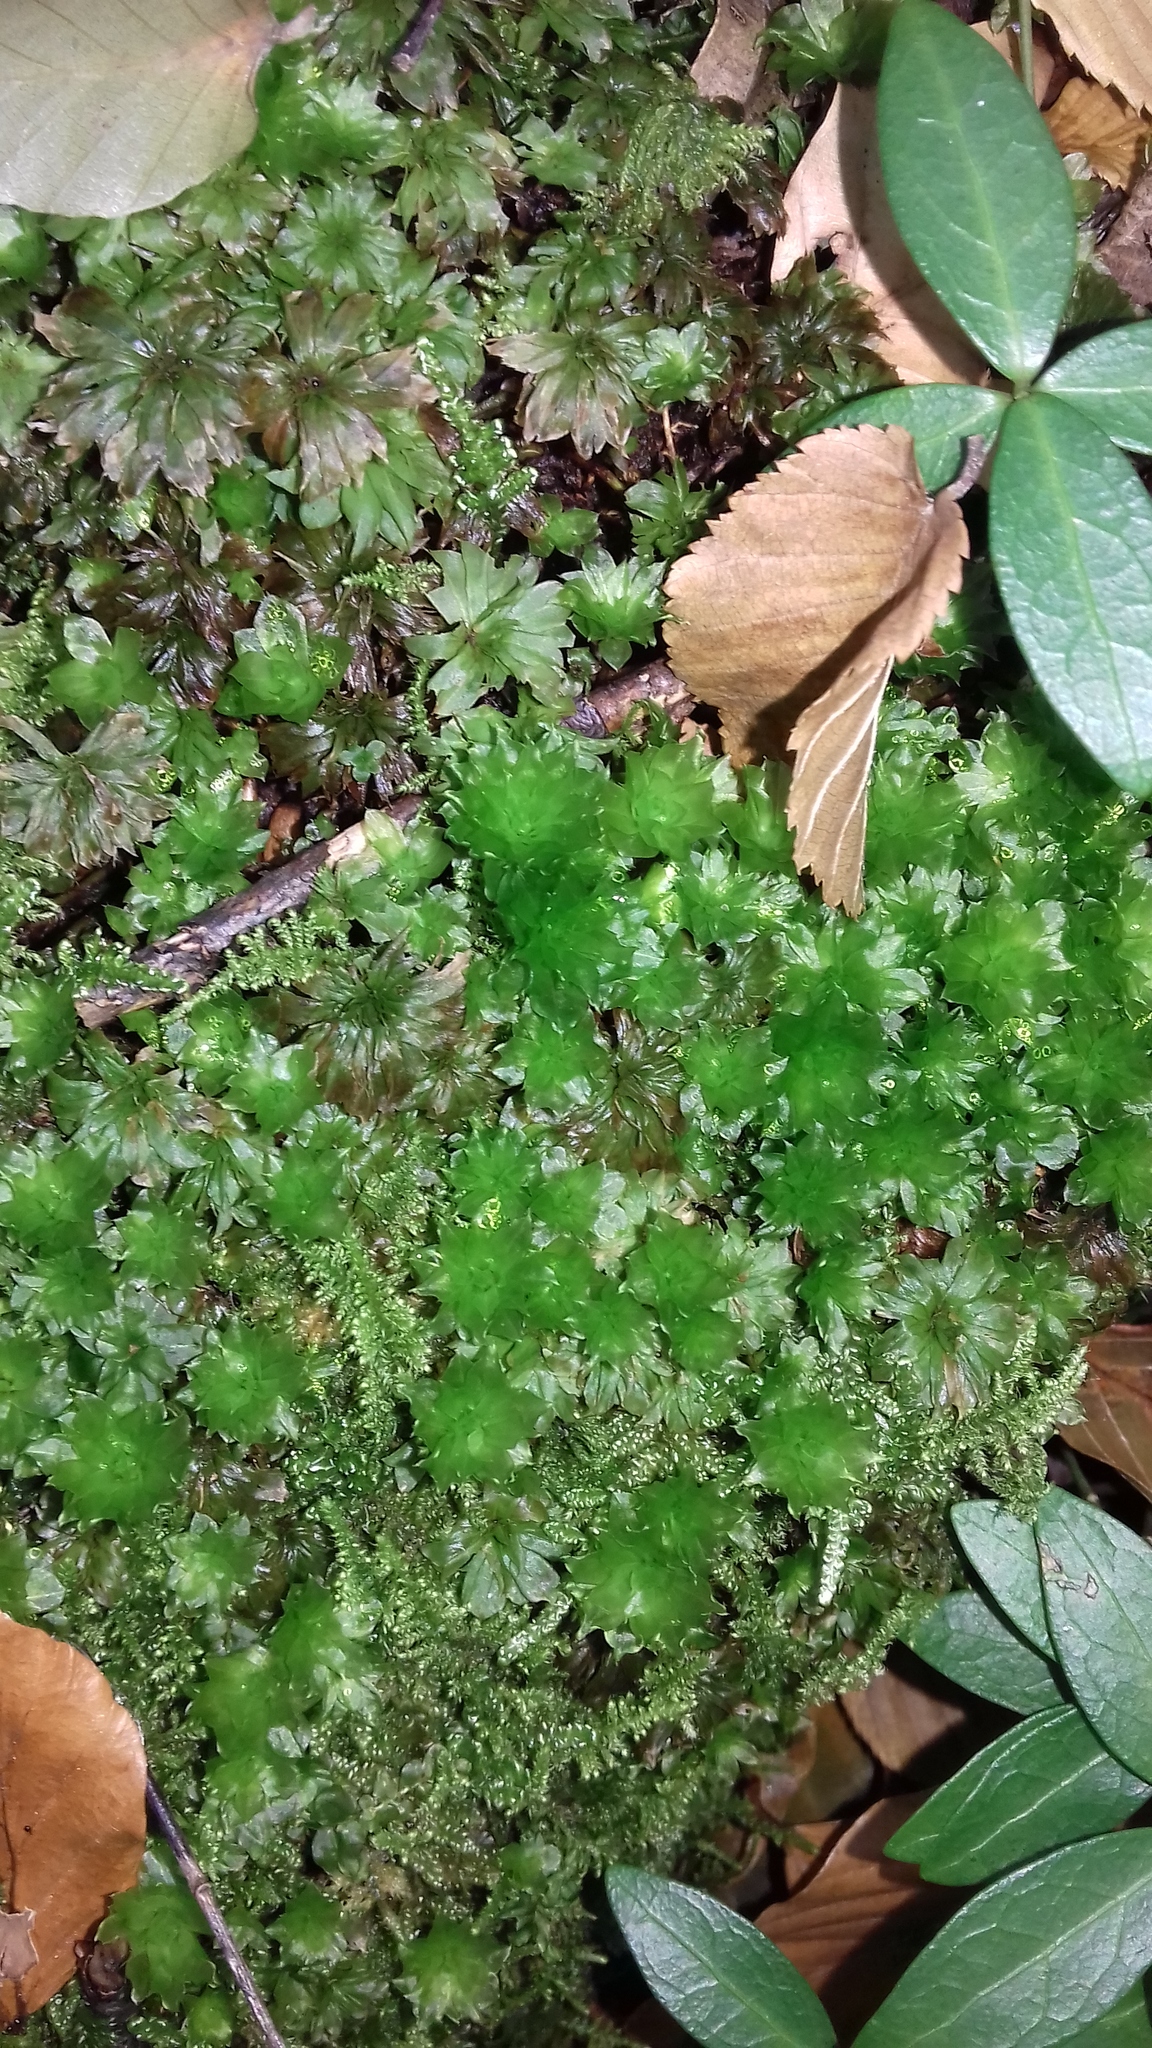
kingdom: Plantae
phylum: Bryophyta
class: Bryopsida
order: Bryales
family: Bryaceae
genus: Rhodobryum
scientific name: Rhodobryum ontariense
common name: Ontario rhodobryum moss
